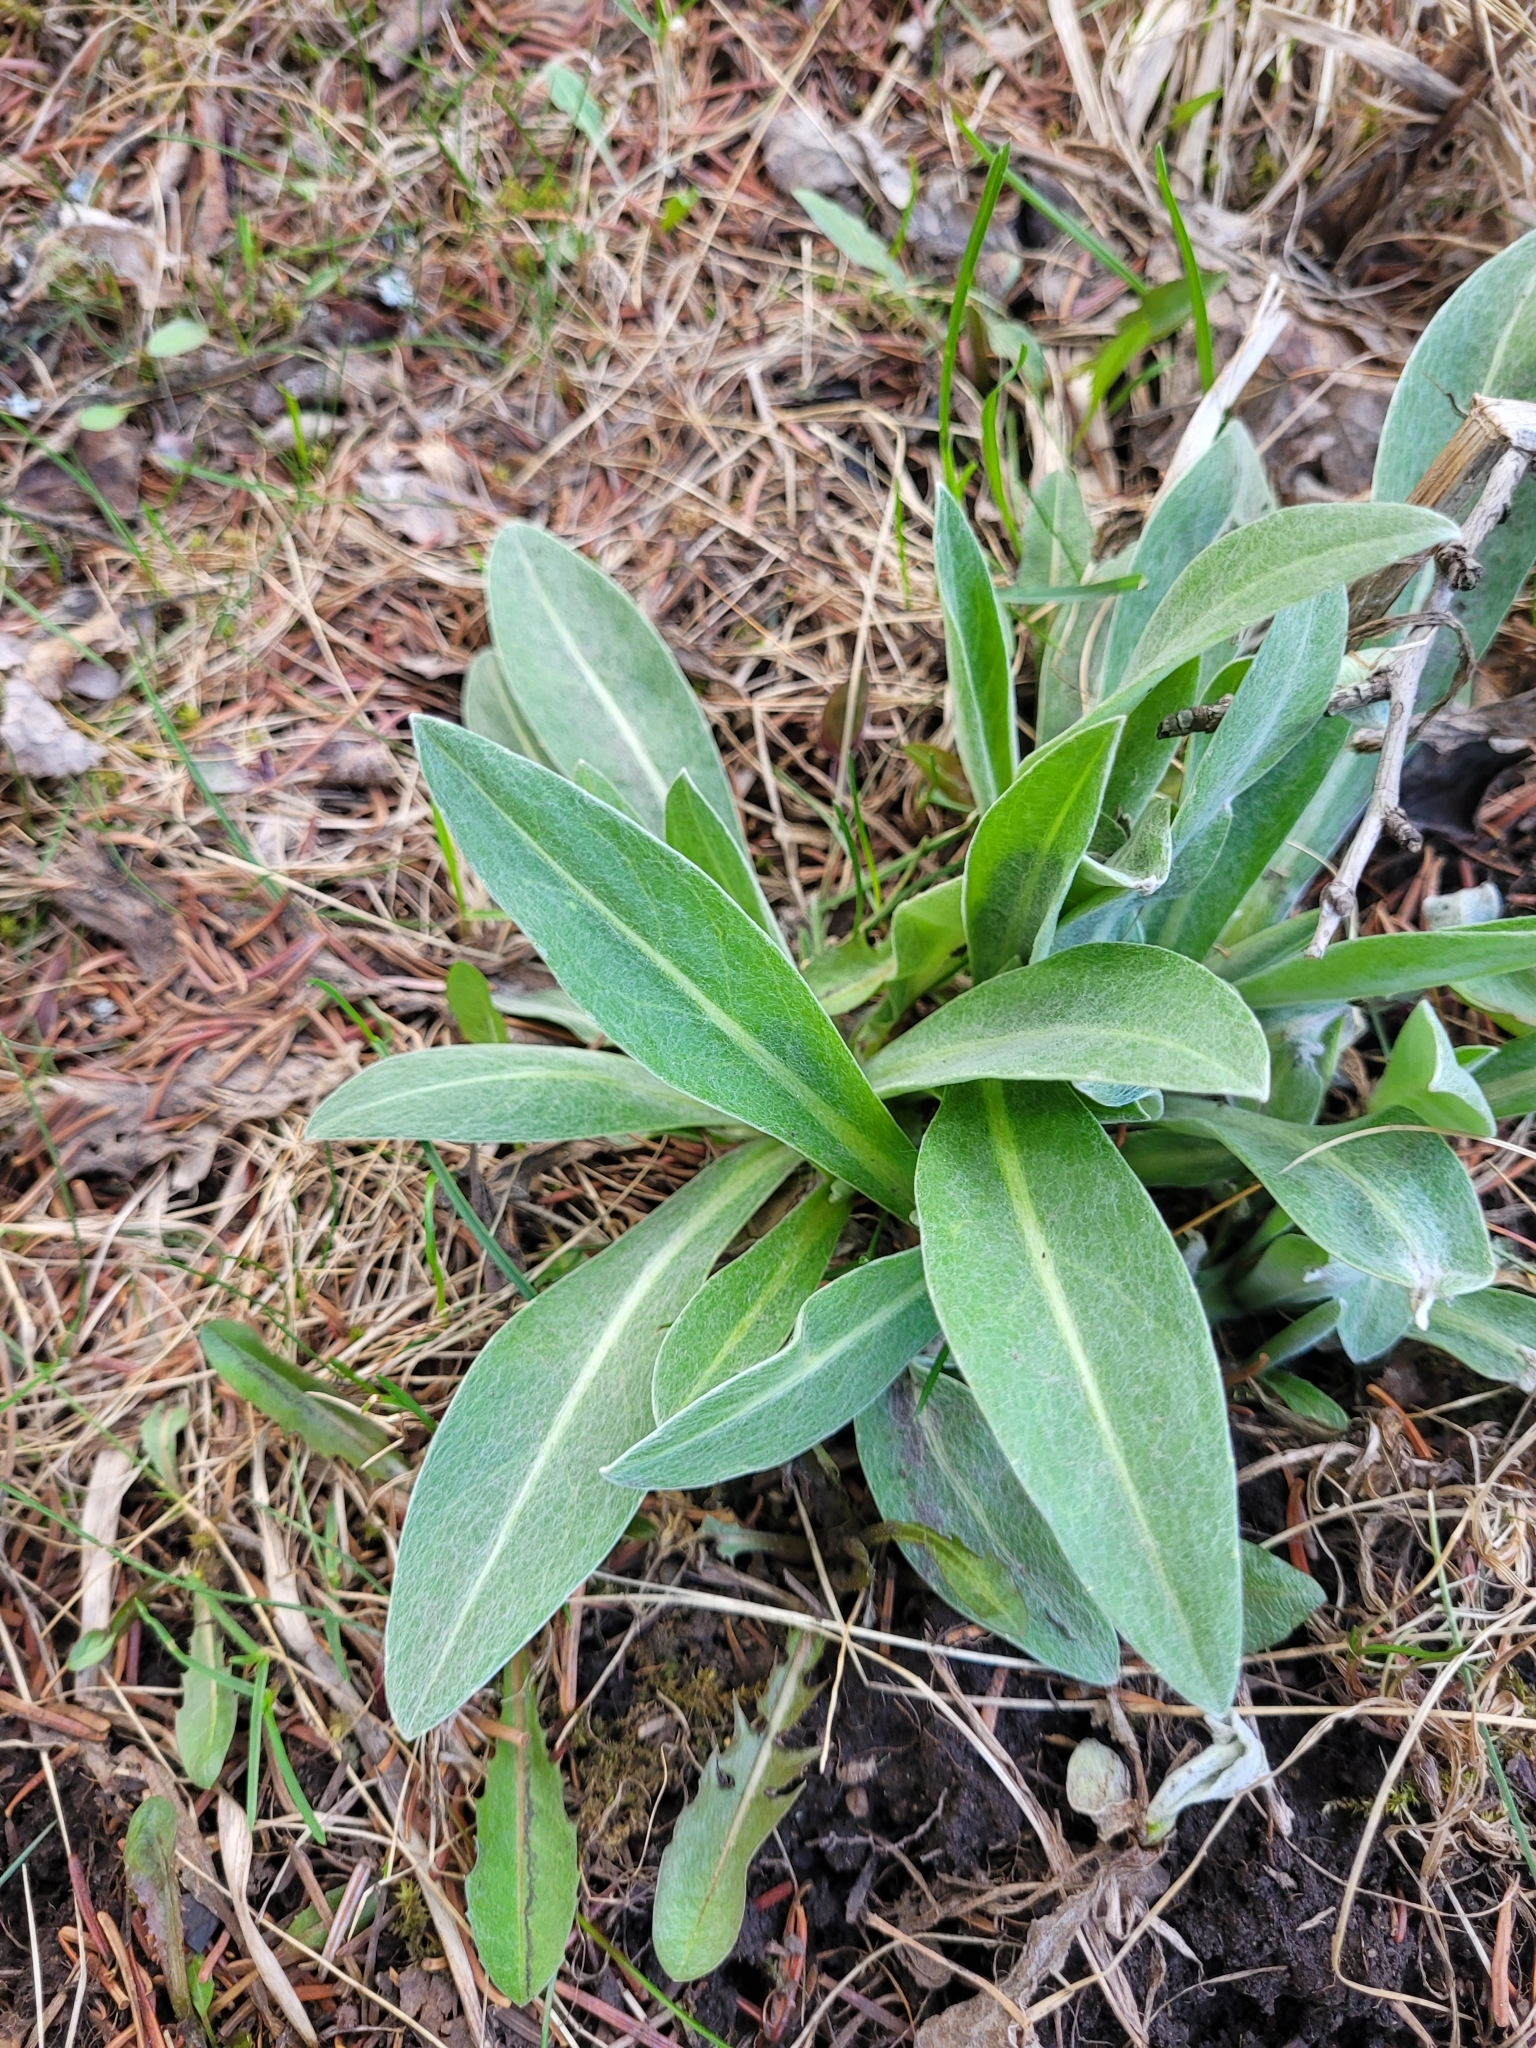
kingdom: Plantae
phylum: Tracheophyta
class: Magnoliopsida
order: Asterales
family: Asteraceae
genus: Centaurea
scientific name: Centaurea montana
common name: Perennial cornflower
